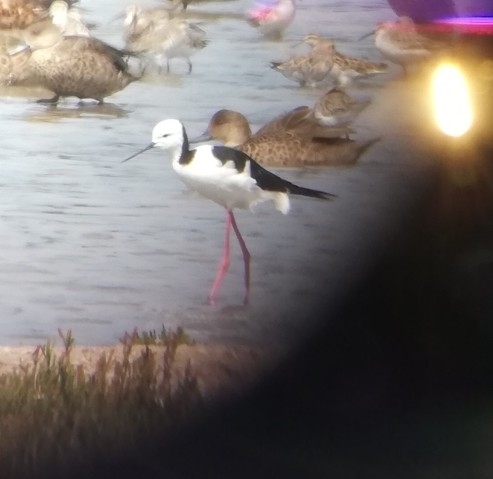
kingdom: Animalia
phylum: Chordata
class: Aves
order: Charadriiformes
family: Recurvirostridae
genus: Himantopus
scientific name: Himantopus leucocephalus
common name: White-headed stilt
